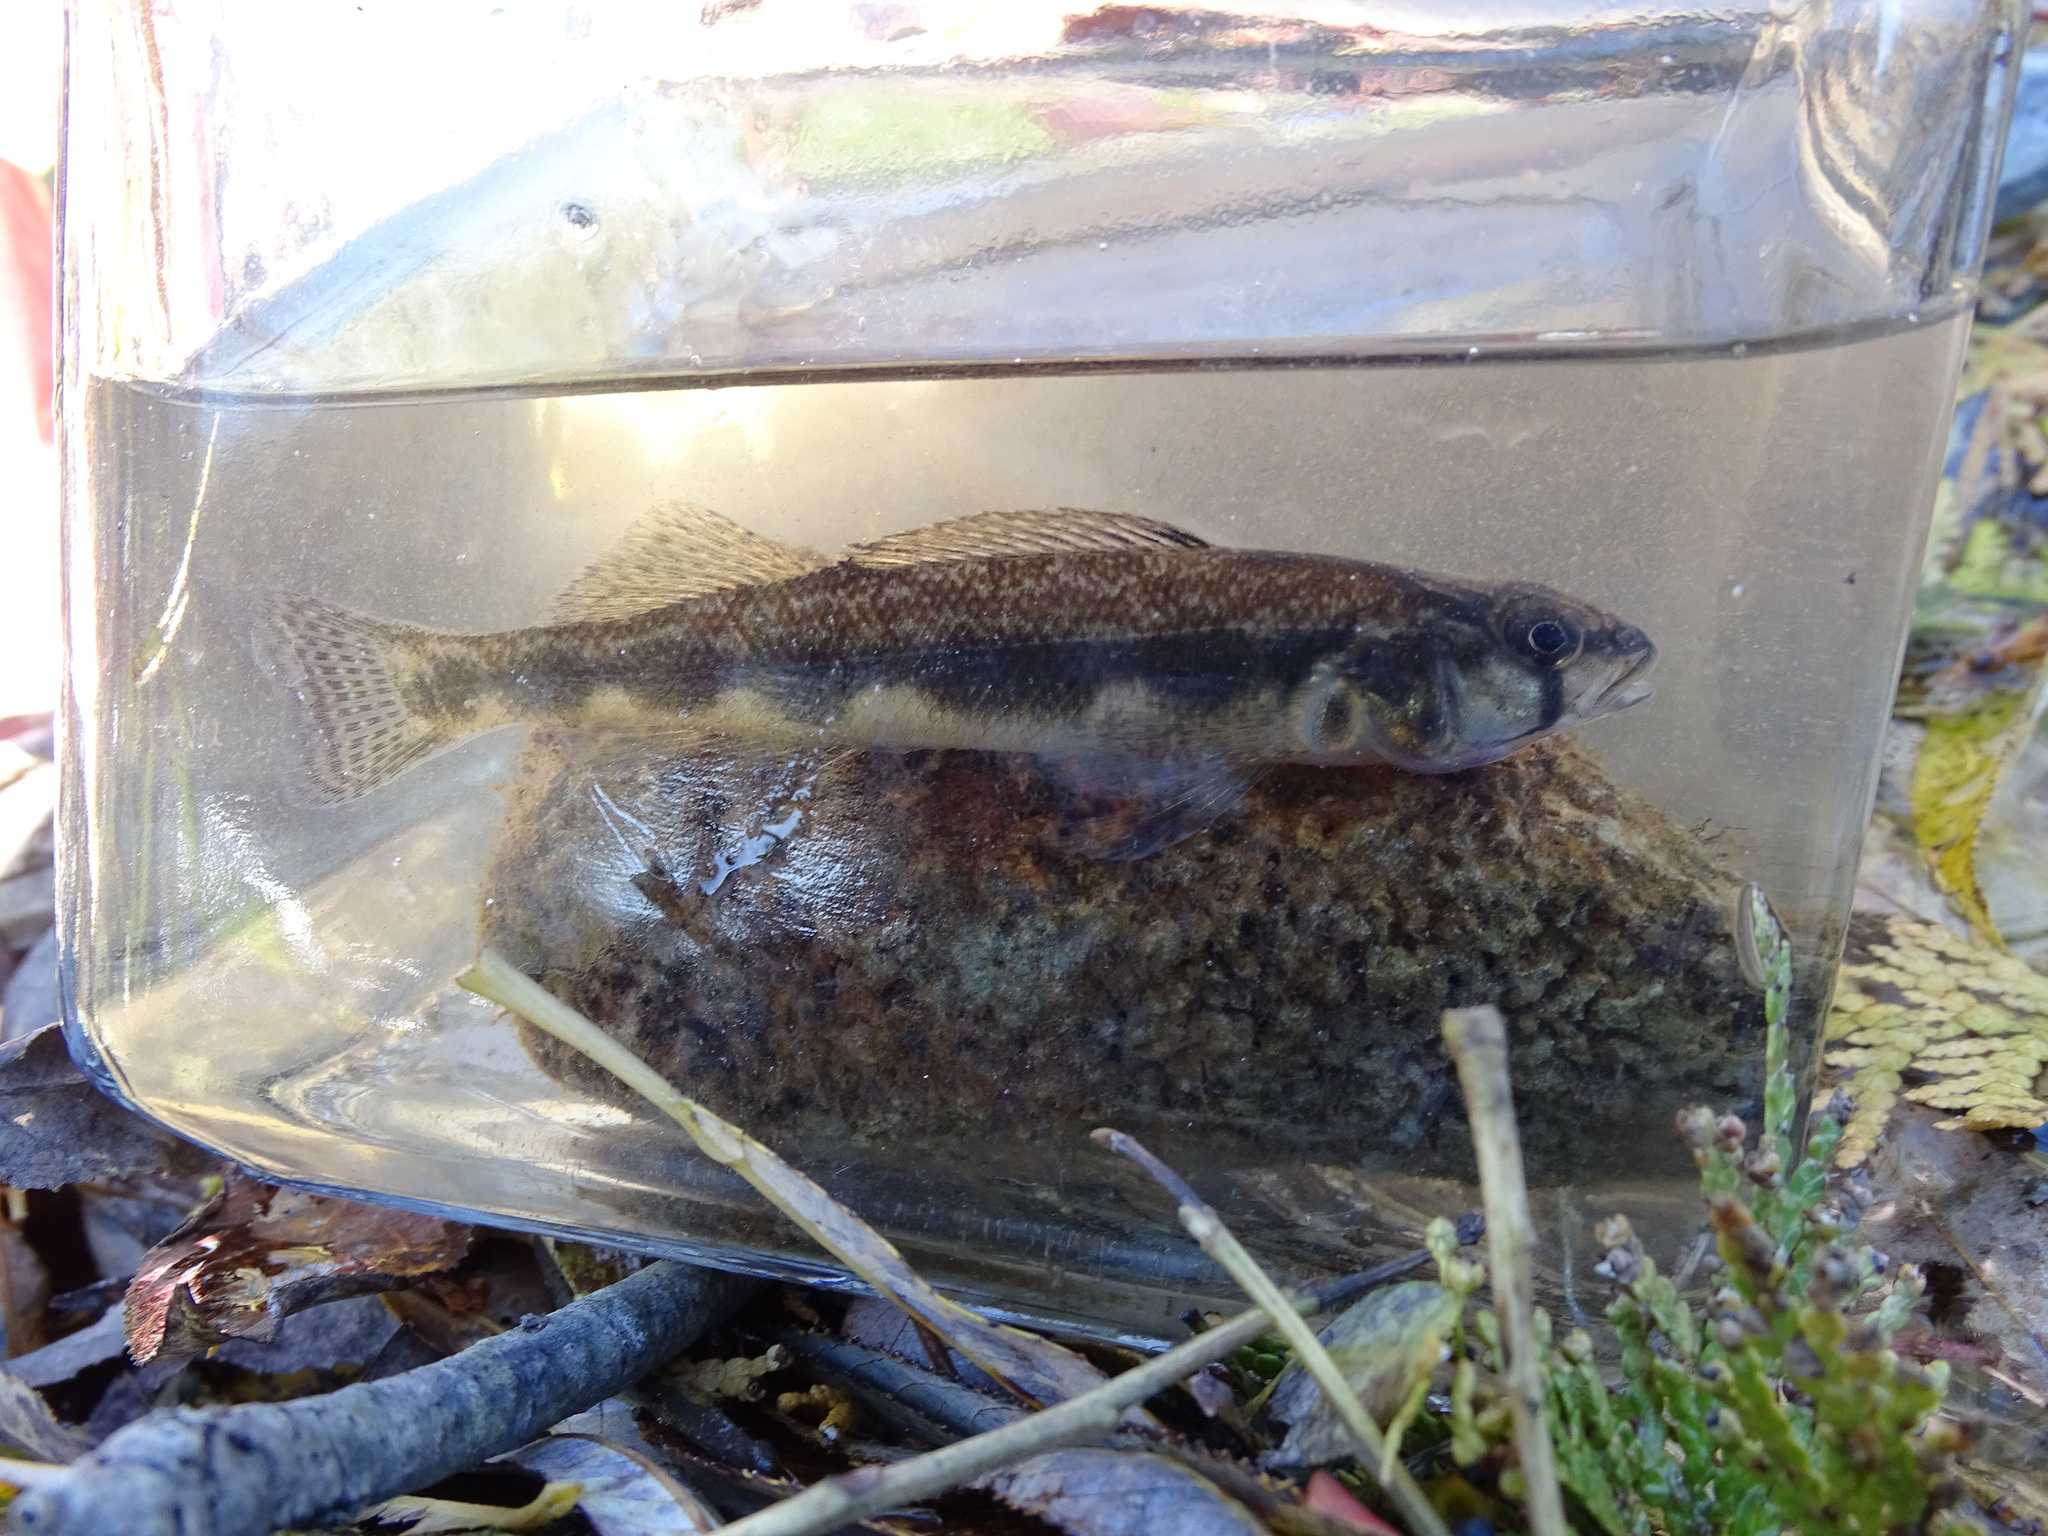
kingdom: Animalia
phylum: Chordata
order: Perciformes
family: Percidae
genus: Percina
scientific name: Percina maculata
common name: Blackside darter
